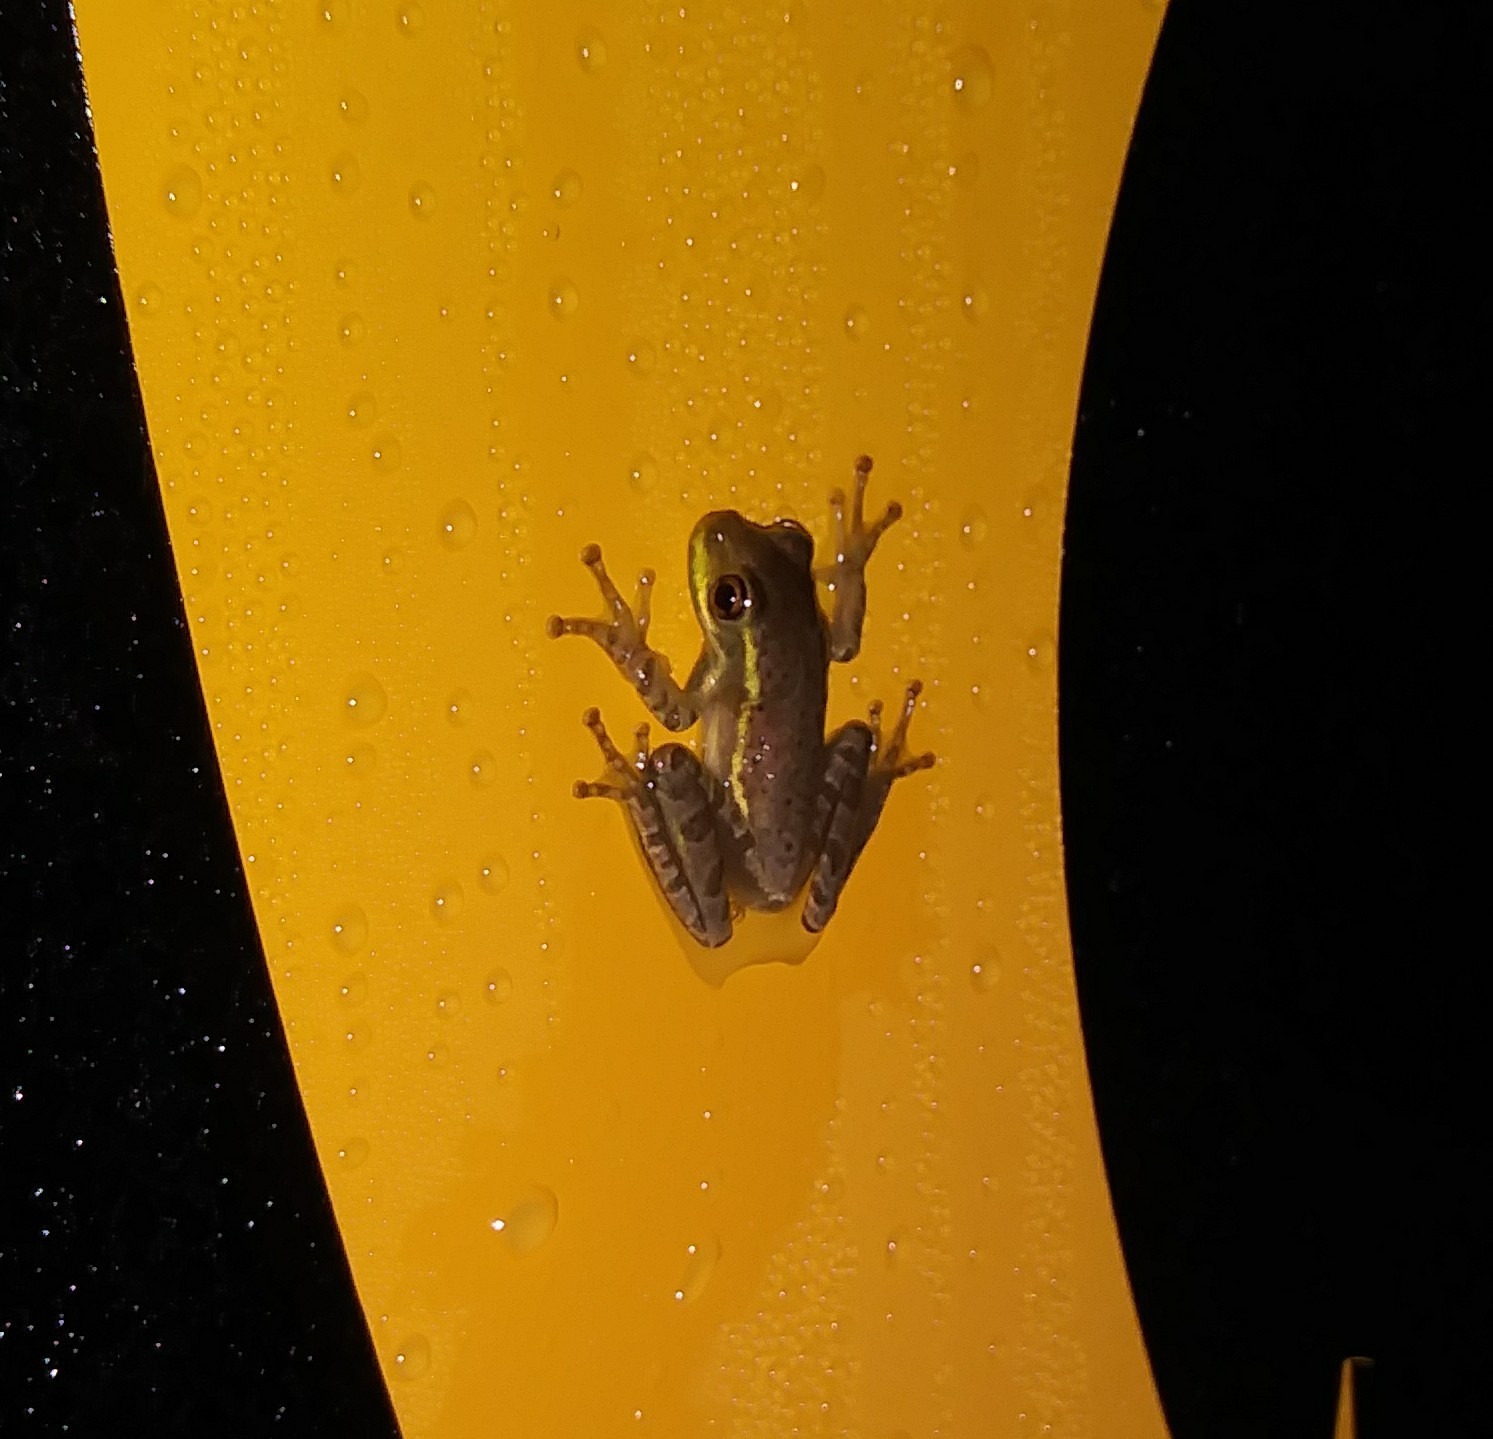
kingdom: Animalia
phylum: Chordata
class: Amphibia
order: Anura
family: Hylidae
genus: Osteopilus
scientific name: Osteopilus septentrionalis
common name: Cuban treefrog
